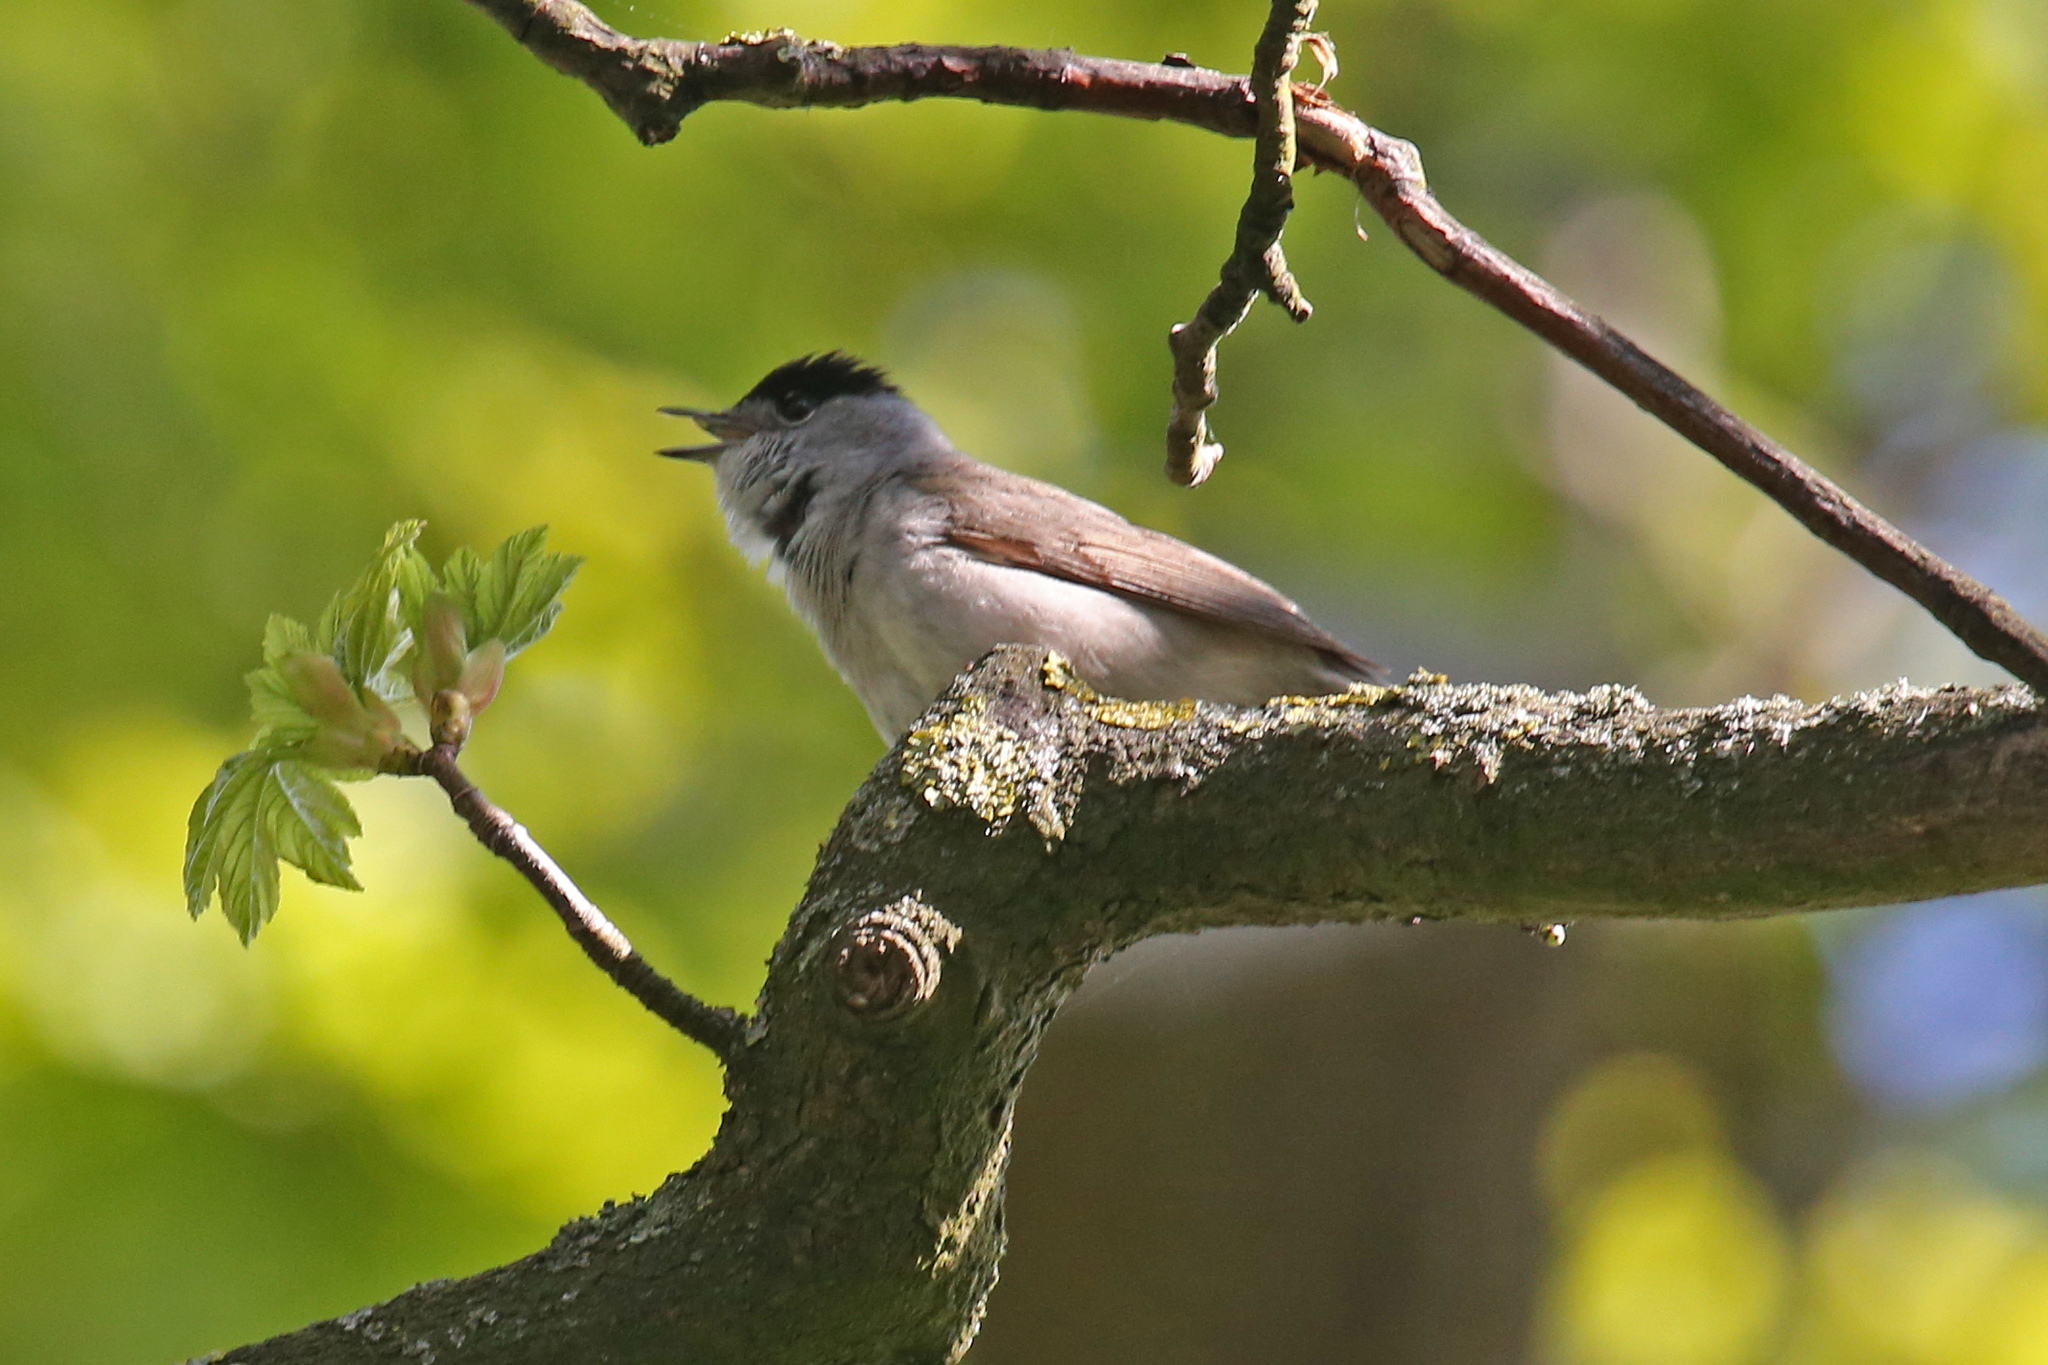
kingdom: Animalia
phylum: Chordata
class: Aves
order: Passeriformes
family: Sylviidae
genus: Sylvia
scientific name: Sylvia atricapilla
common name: Eurasian blackcap
